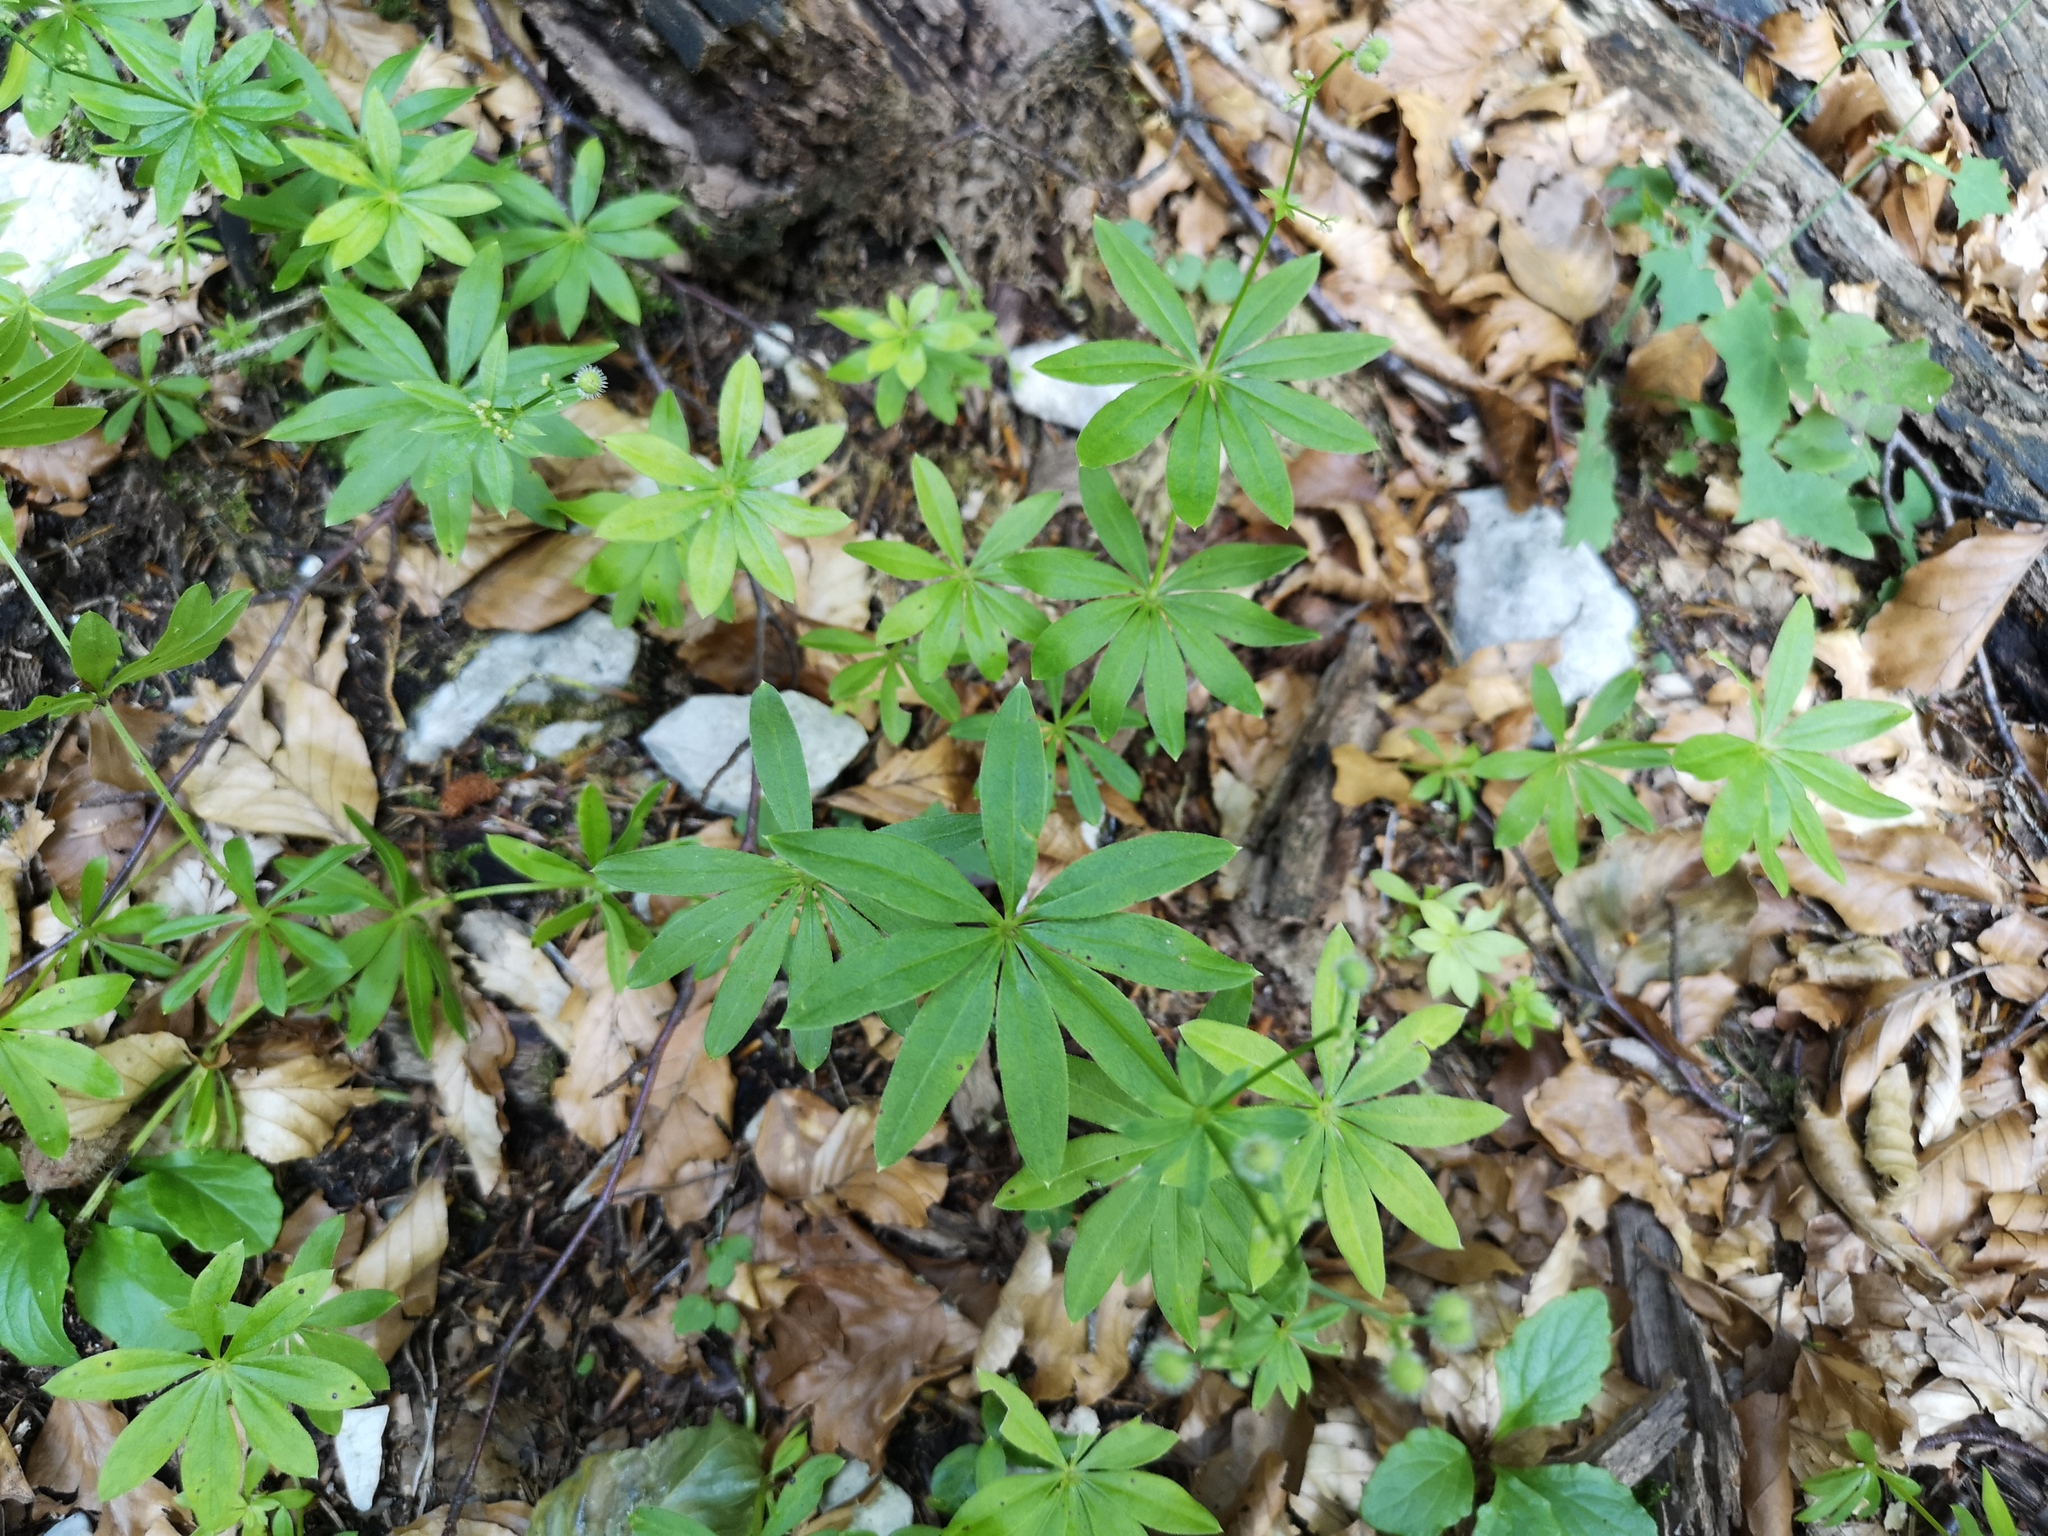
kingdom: Plantae
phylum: Tracheophyta
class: Magnoliopsida
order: Gentianales
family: Rubiaceae
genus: Galium
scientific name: Galium odoratum
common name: Sweet woodruff
